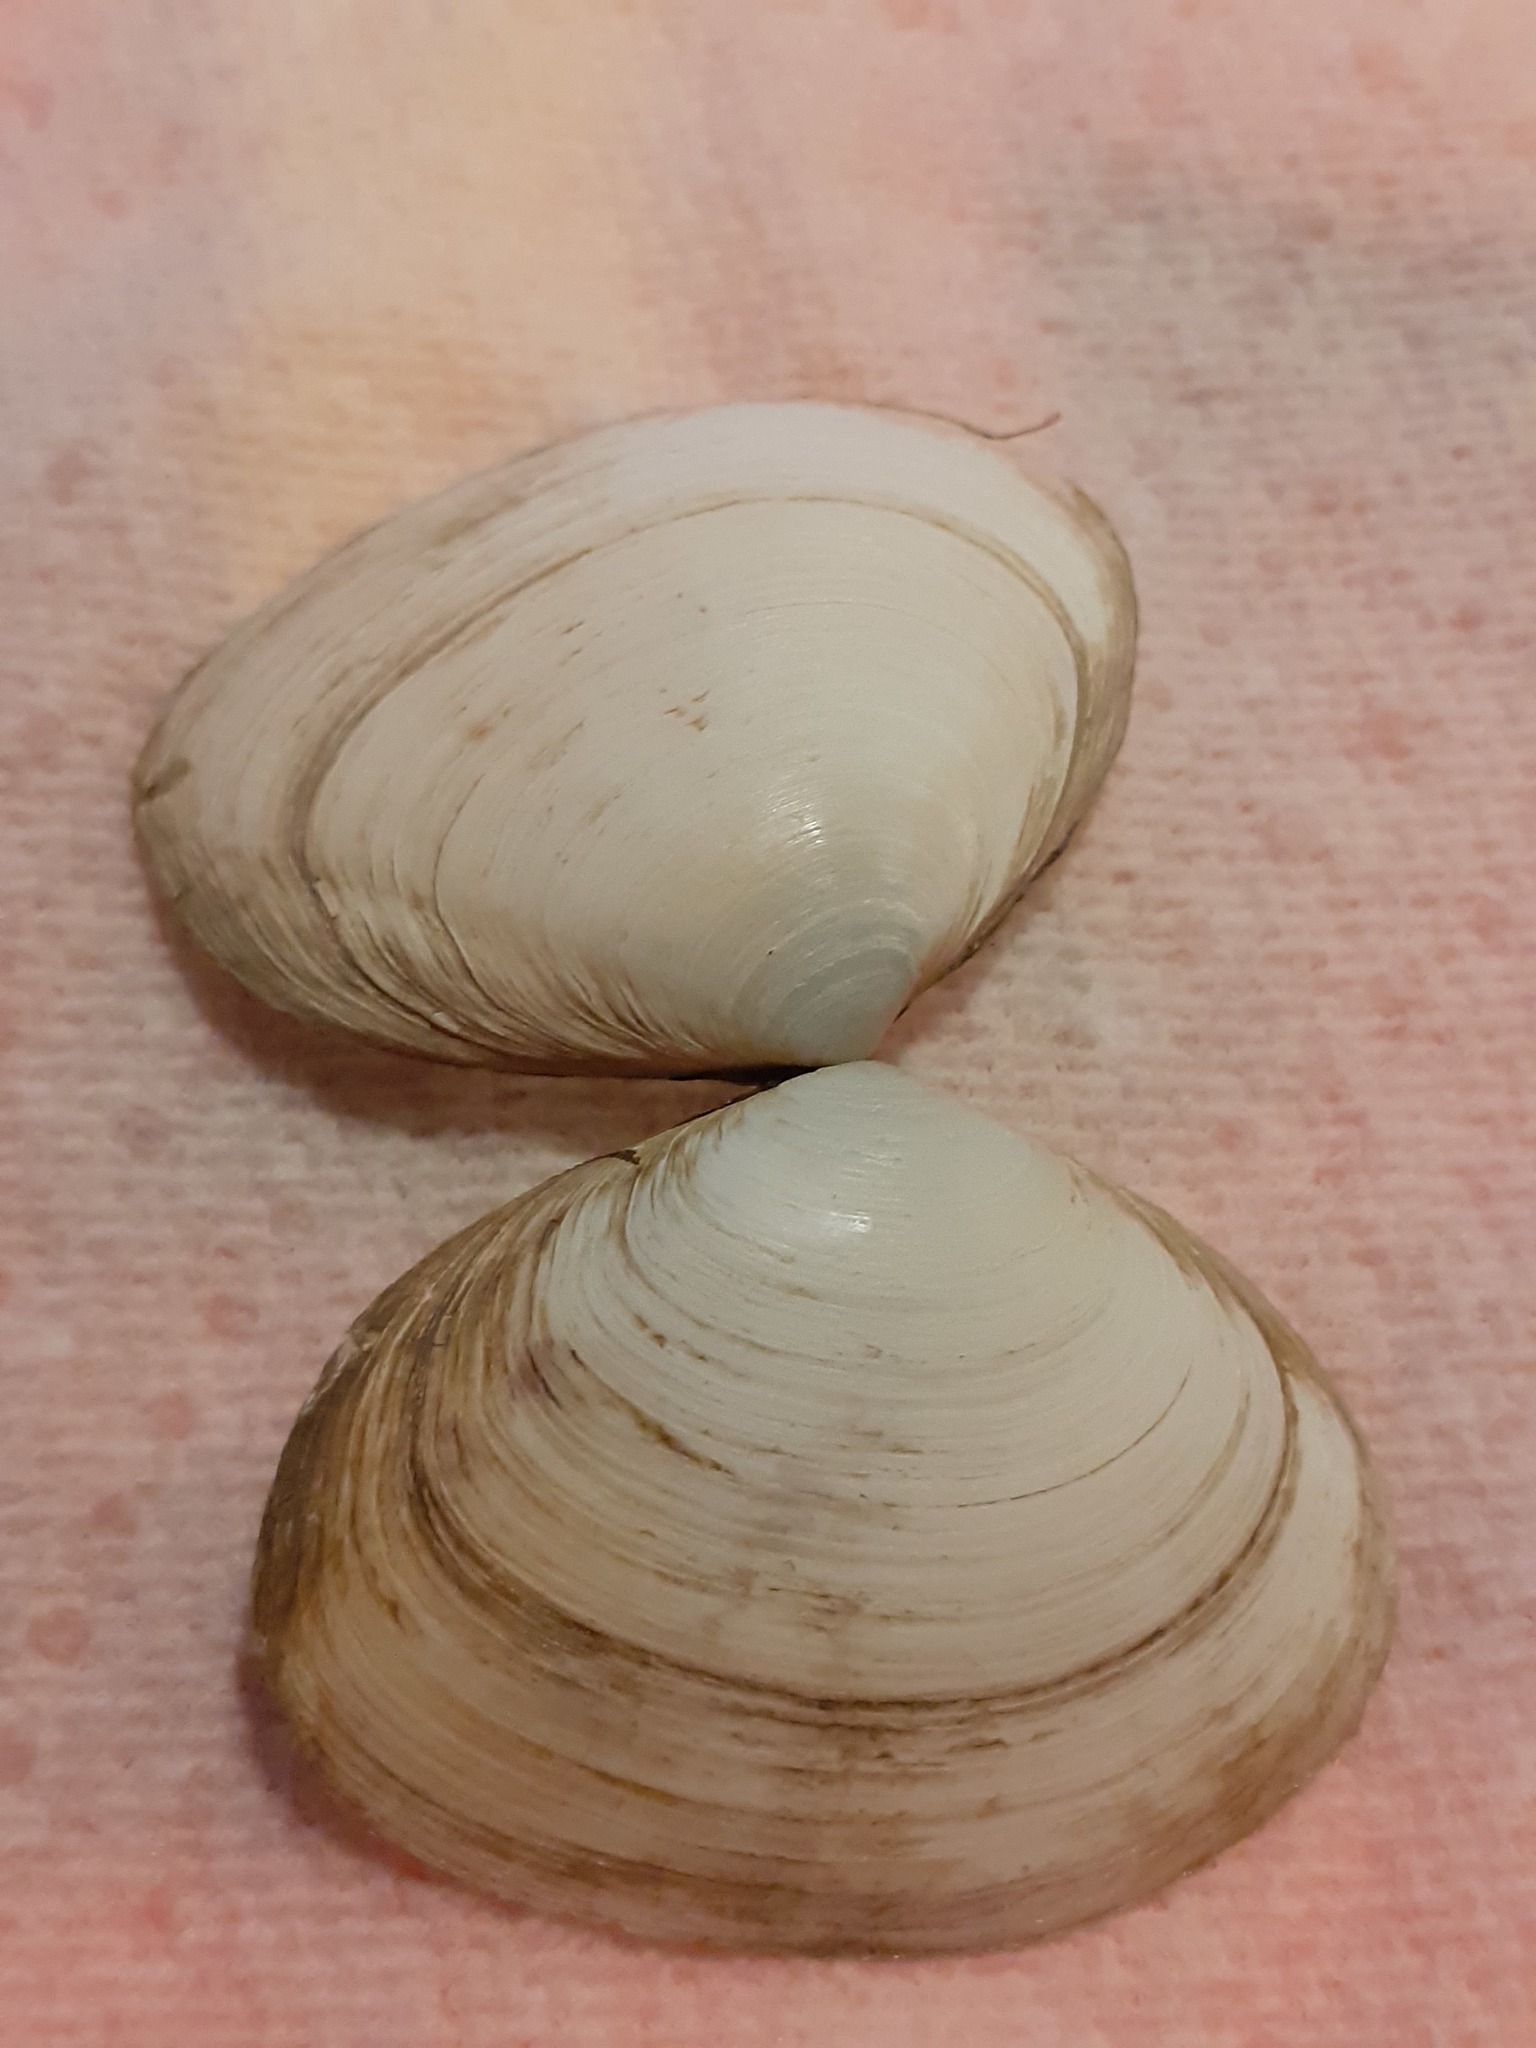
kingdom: Animalia
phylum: Mollusca
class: Bivalvia
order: Cardiida
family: Semelidae
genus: Scrobicularia
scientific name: Scrobicularia plana
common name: Peppery furrow shell
